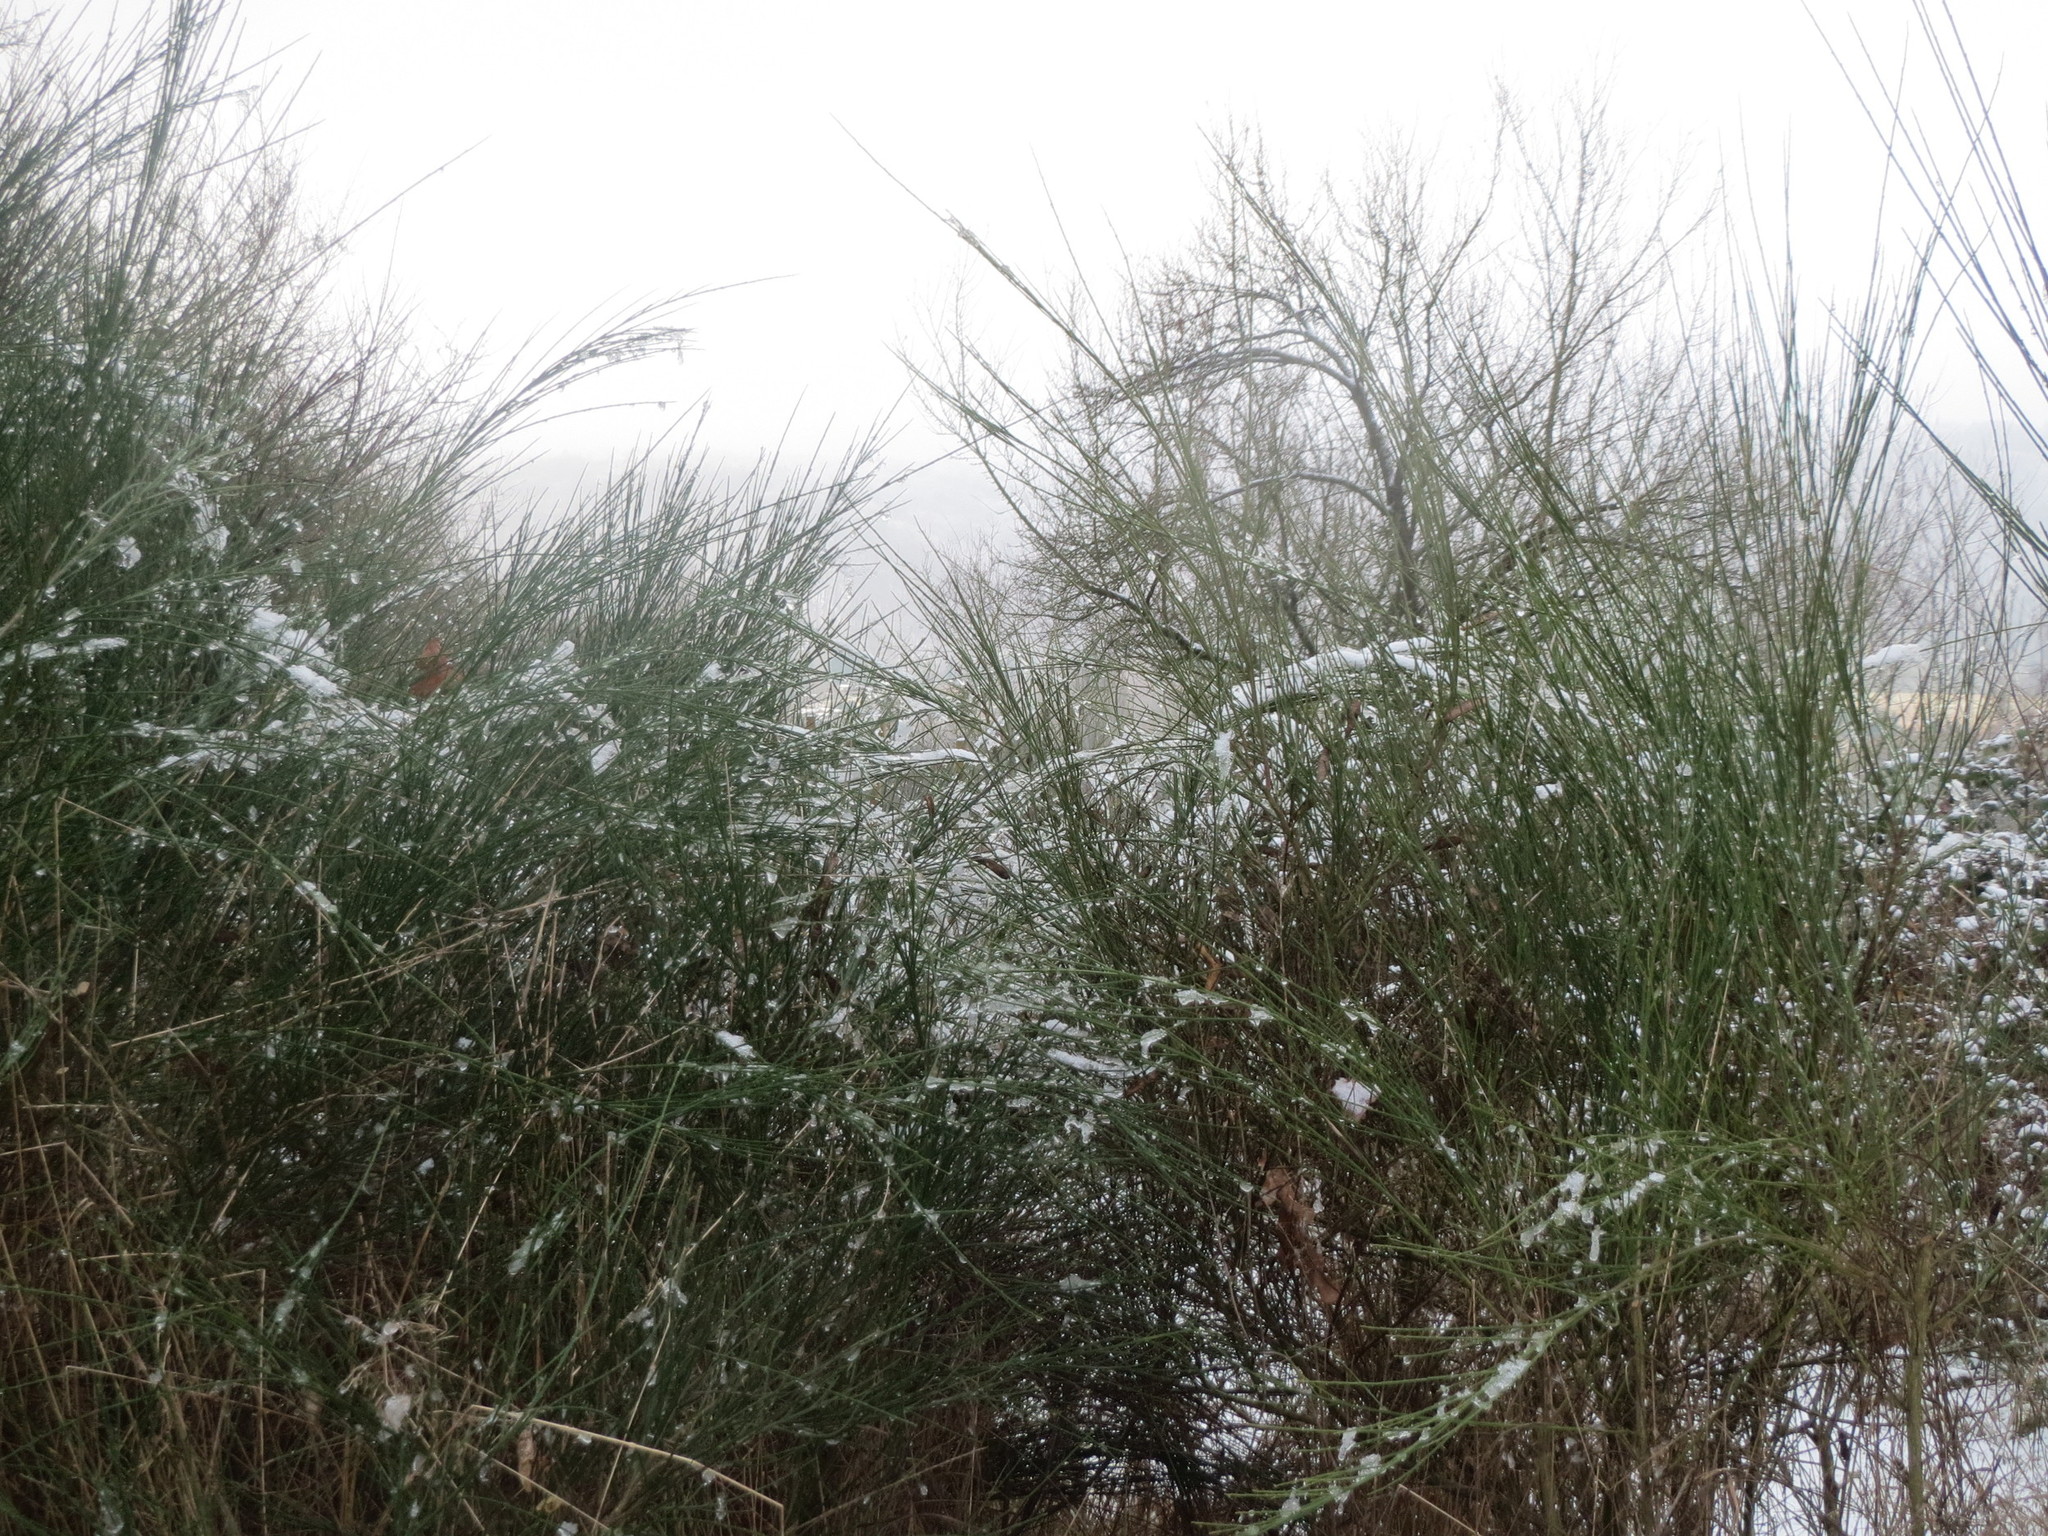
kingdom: Plantae
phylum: Tracheophyta
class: Magnoliopsida
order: Fabales
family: Fabaceae
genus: Cytisus
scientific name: Cytisus scoparius
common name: Scotch broom
